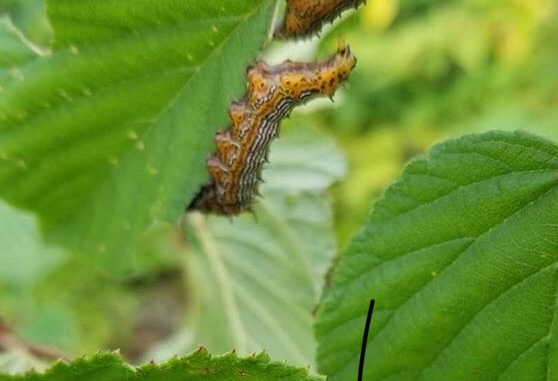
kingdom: Animalia
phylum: Arthropoda
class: Insecta
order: Lepidoptera
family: Notodontidae
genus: Schizura
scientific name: Schizura
